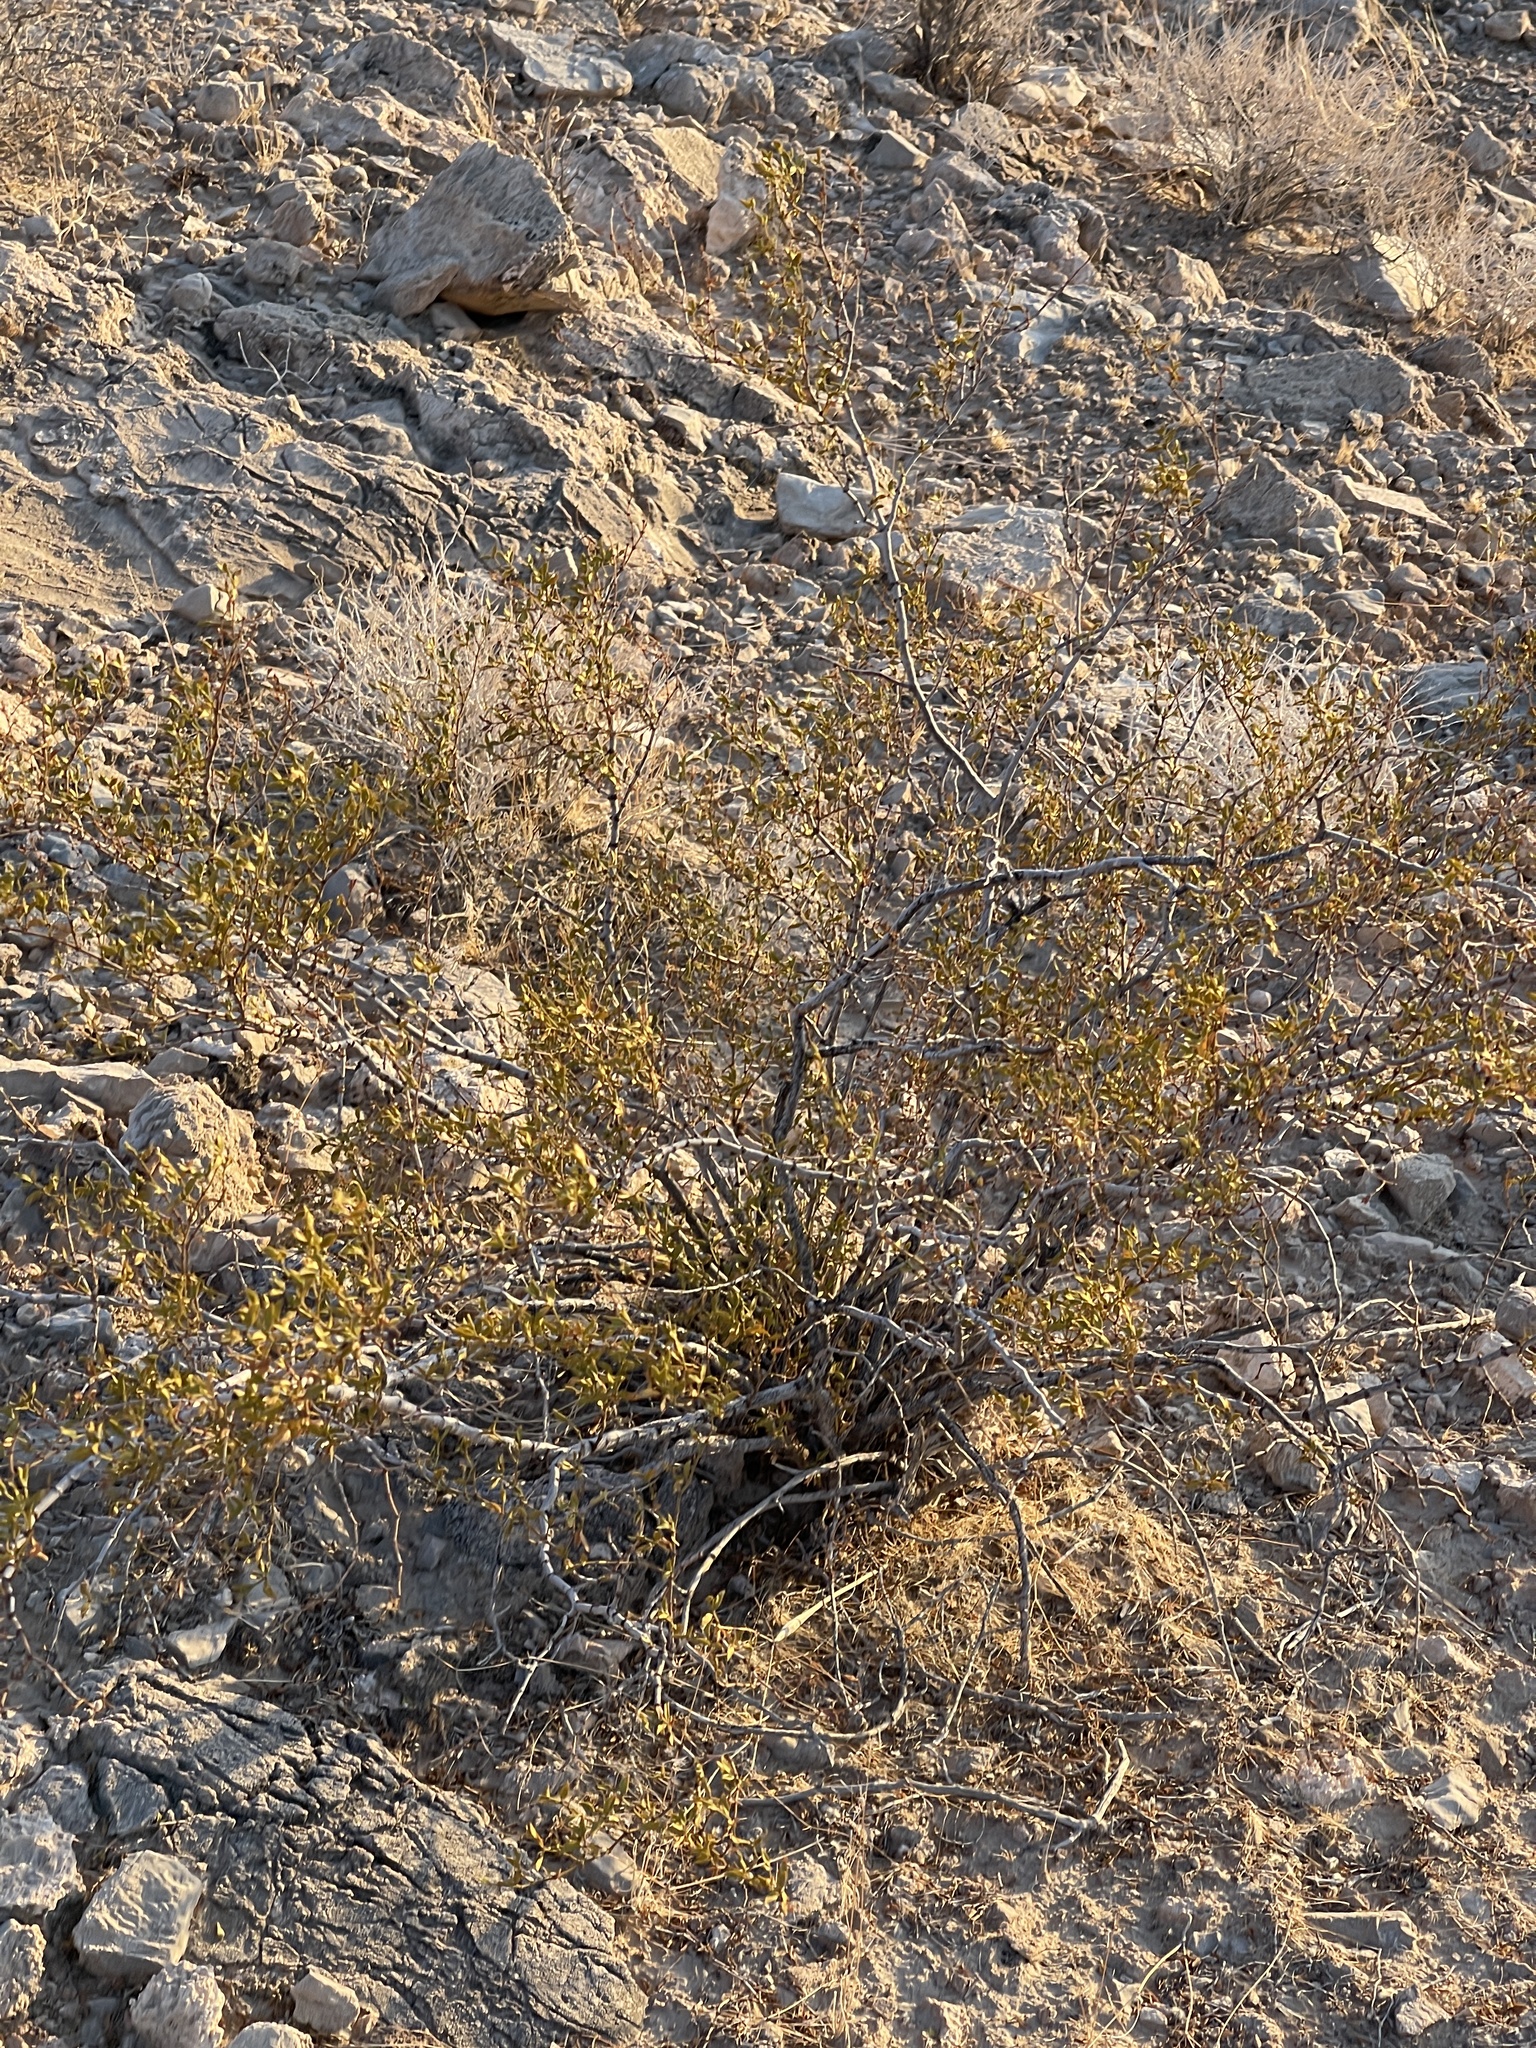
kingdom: Plantae
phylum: Tracheophyta
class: Magnoliopsida
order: Zygophyllales
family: Zygophyllaceae
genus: Larrea
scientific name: Larrea tridentata
